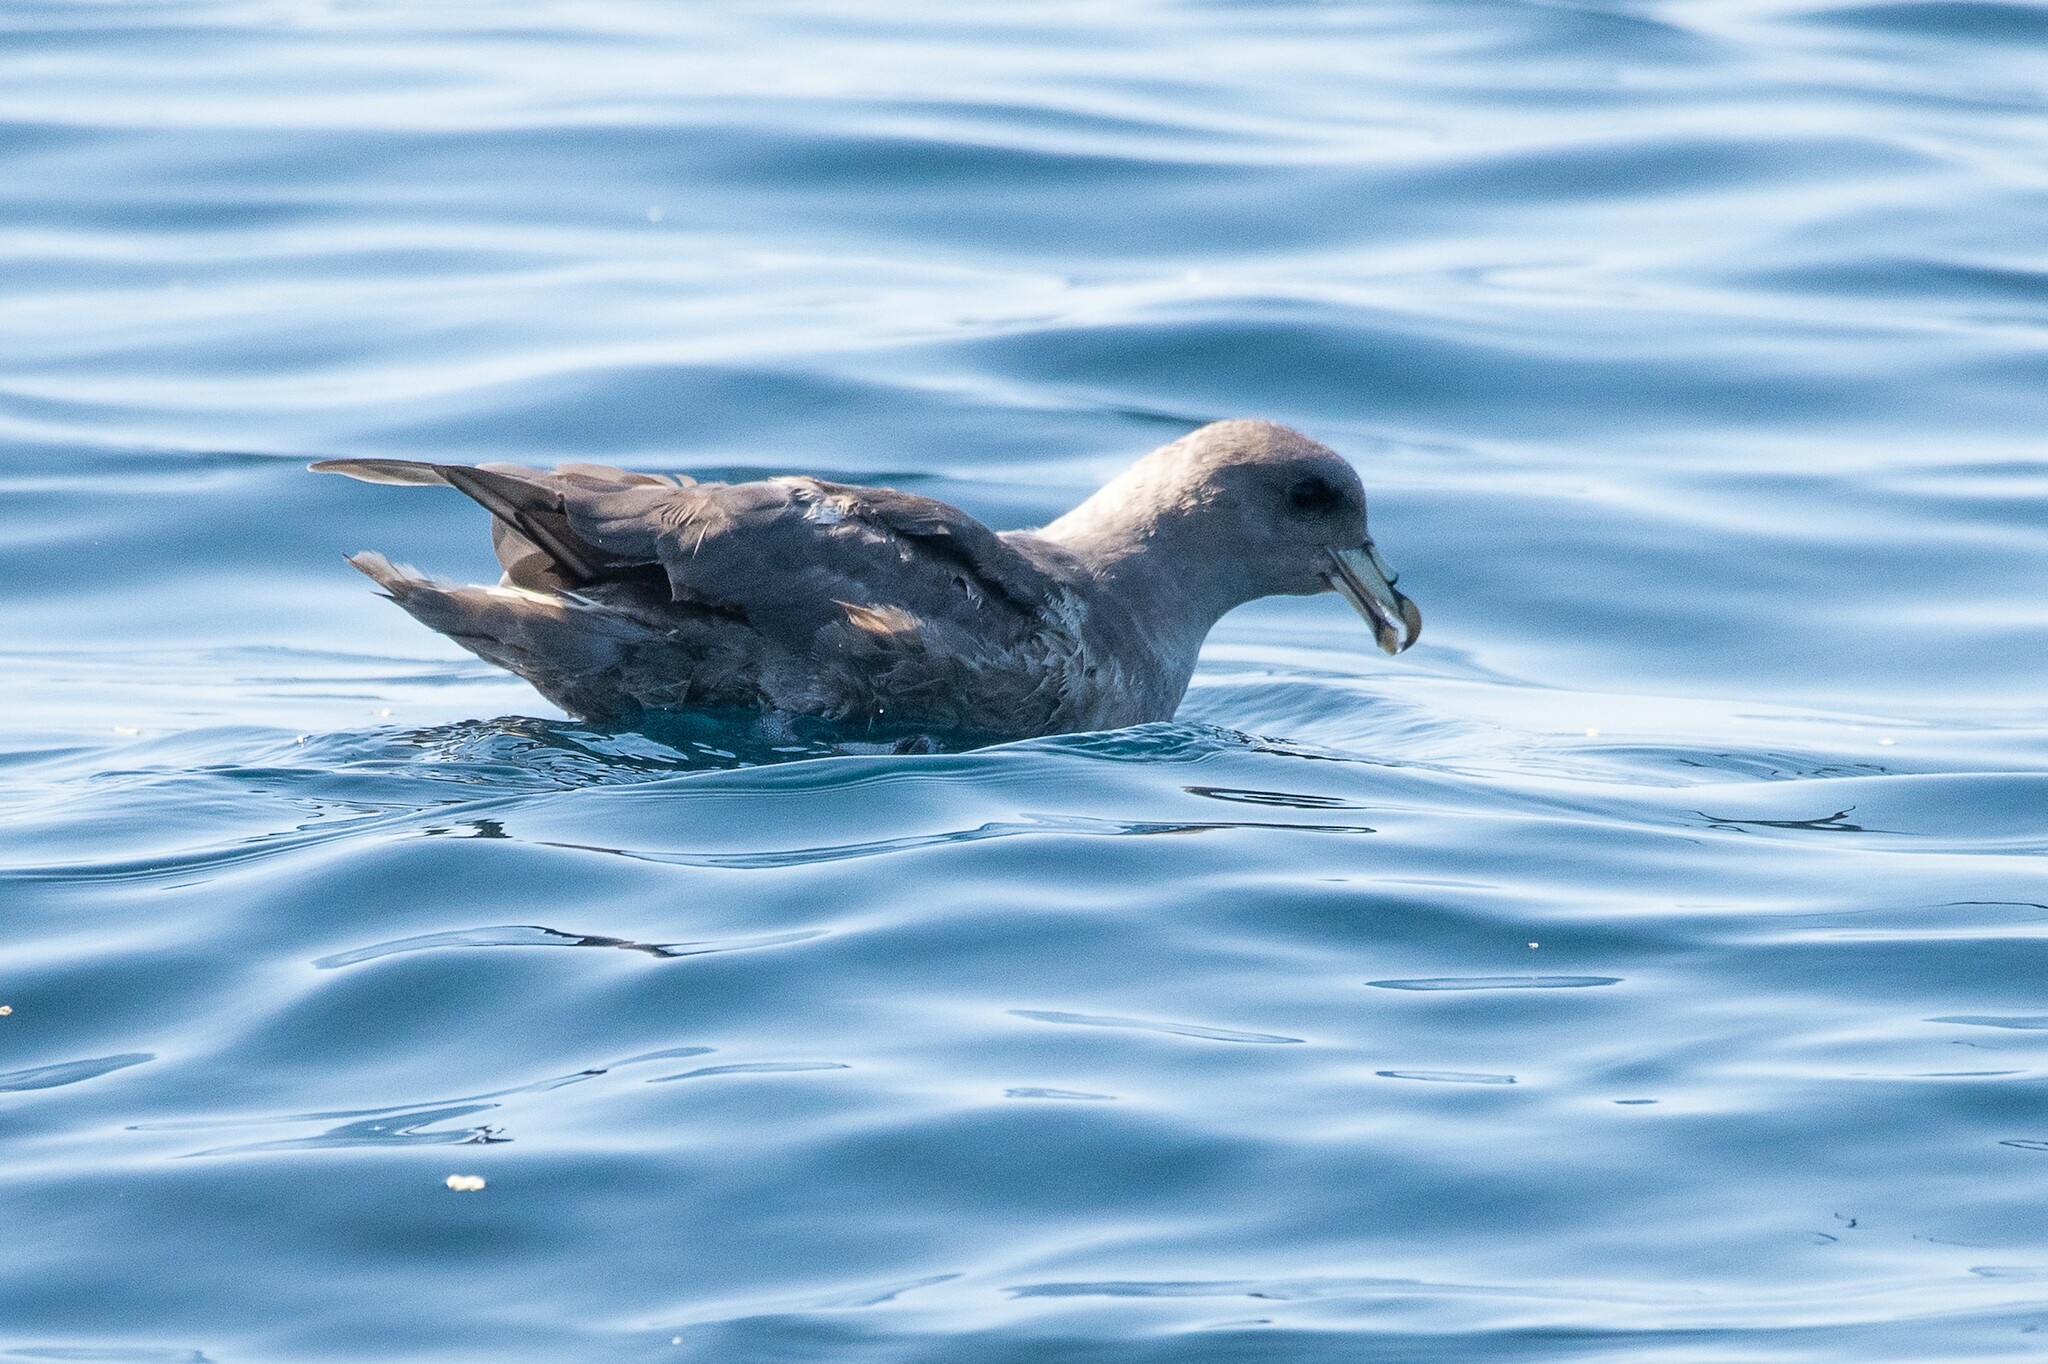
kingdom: Animalia
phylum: Chordata
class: Aves
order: Procellariiformes
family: Procellariidae
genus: Fulmarus
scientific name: Fulmarus glacialis
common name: Northern fulmar
